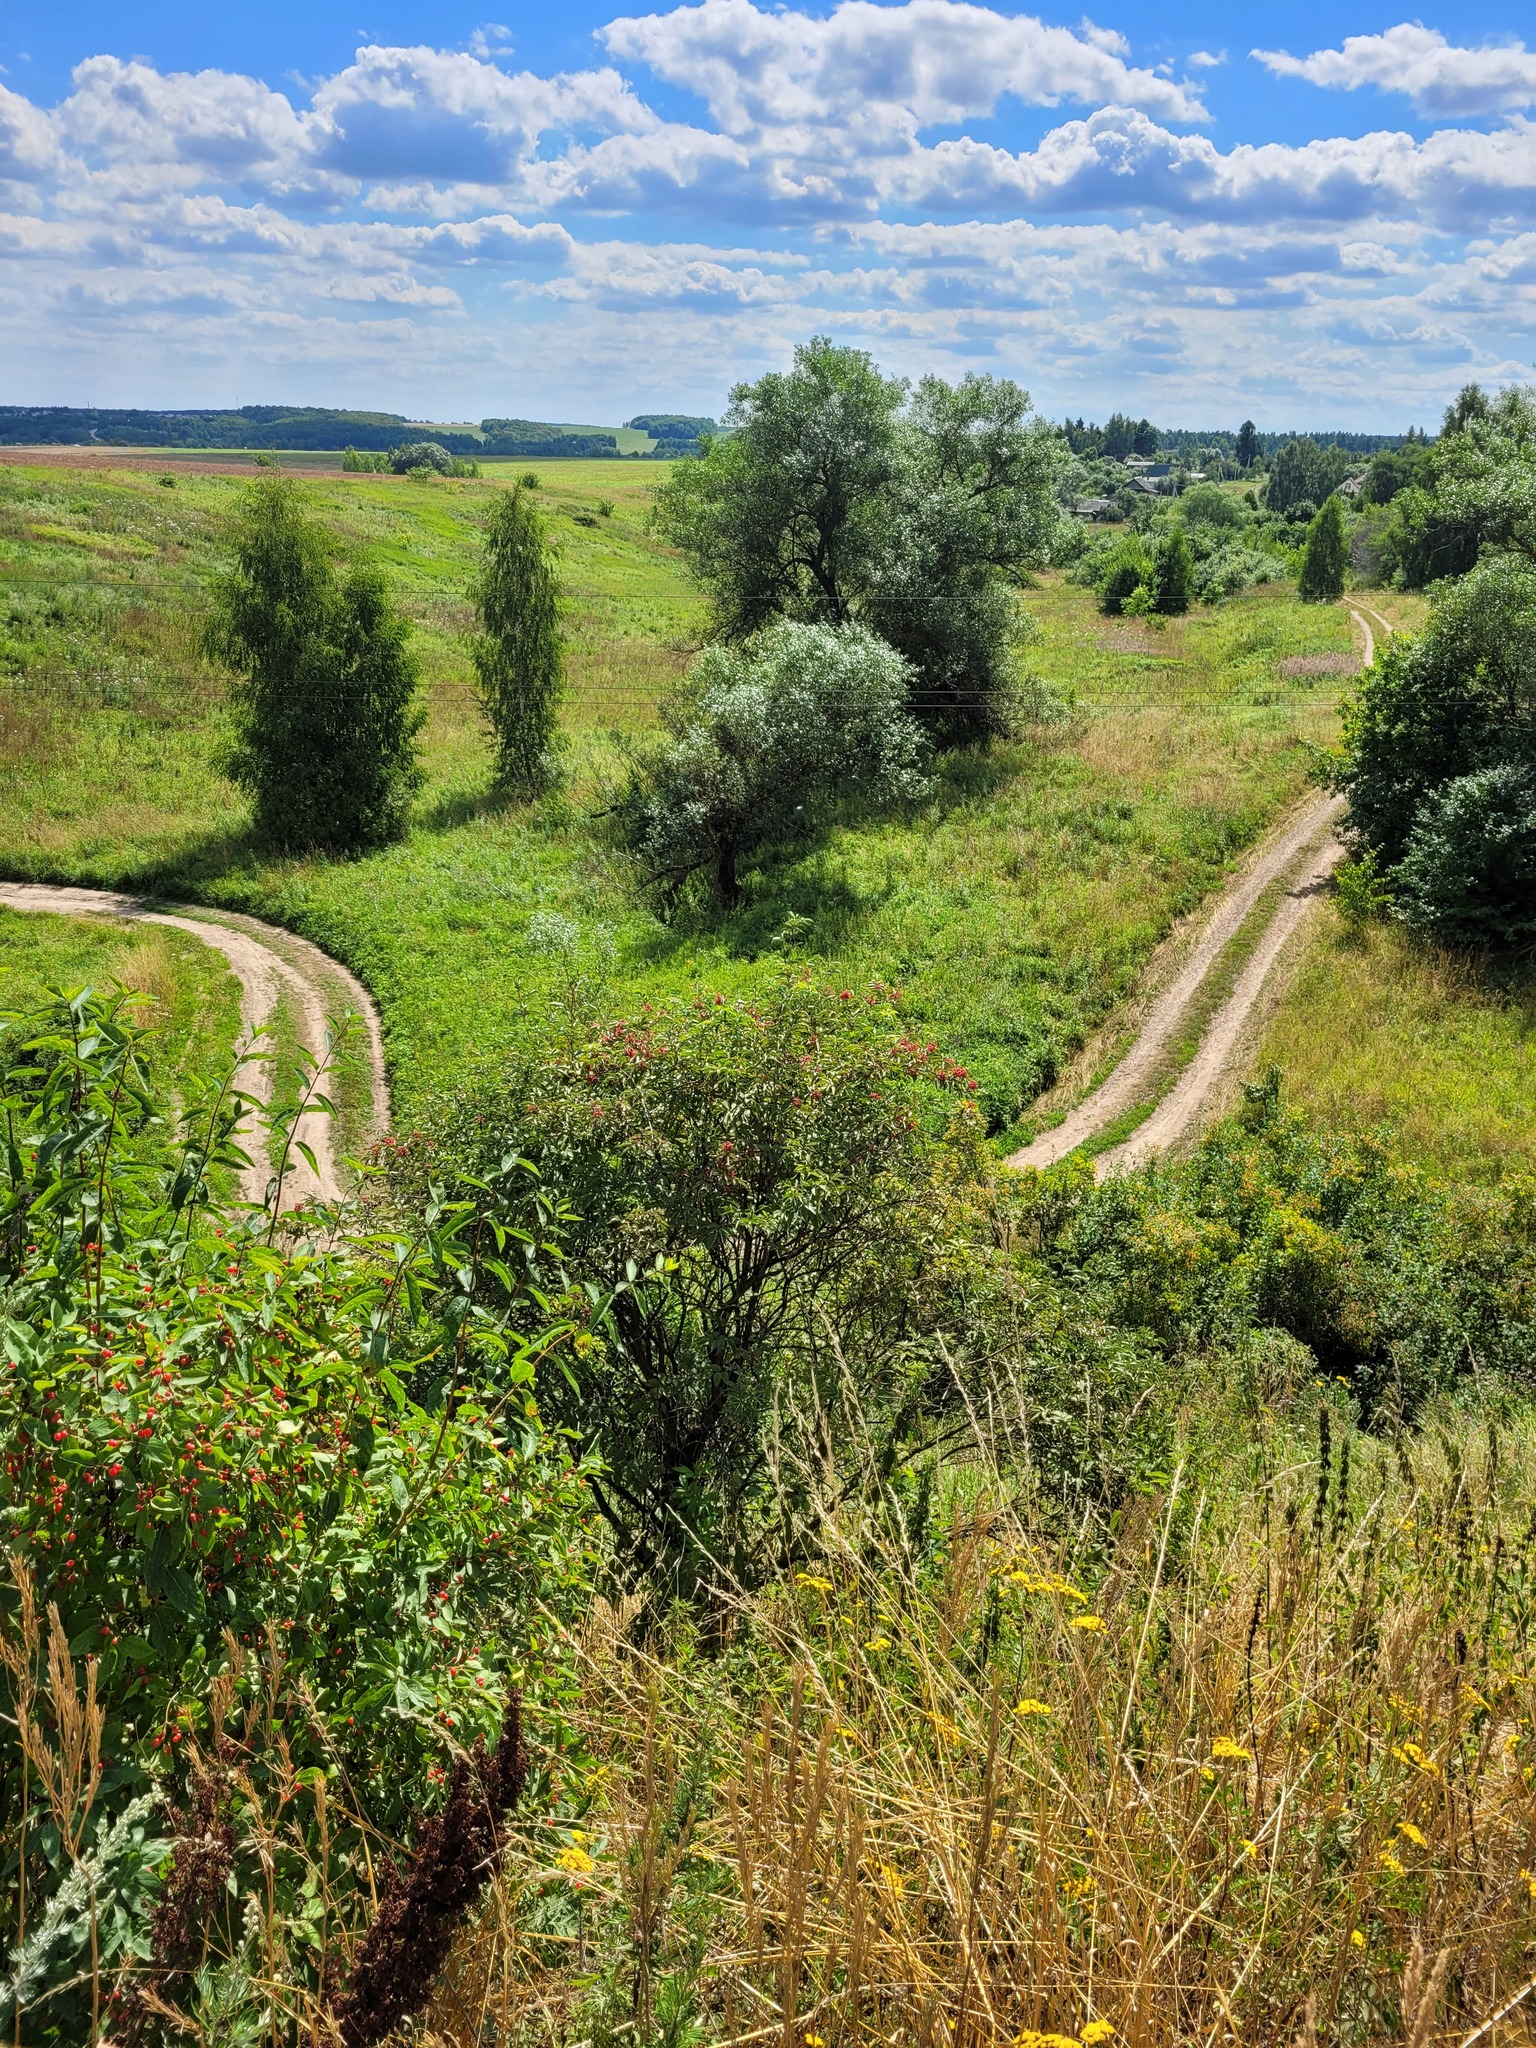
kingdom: Plantae
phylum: Tracheophyta
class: Magnoliopsida
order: Dipsacales
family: Viburnaceae
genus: Sambucus
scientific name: Sambucus racemosa
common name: Red-berried elder
